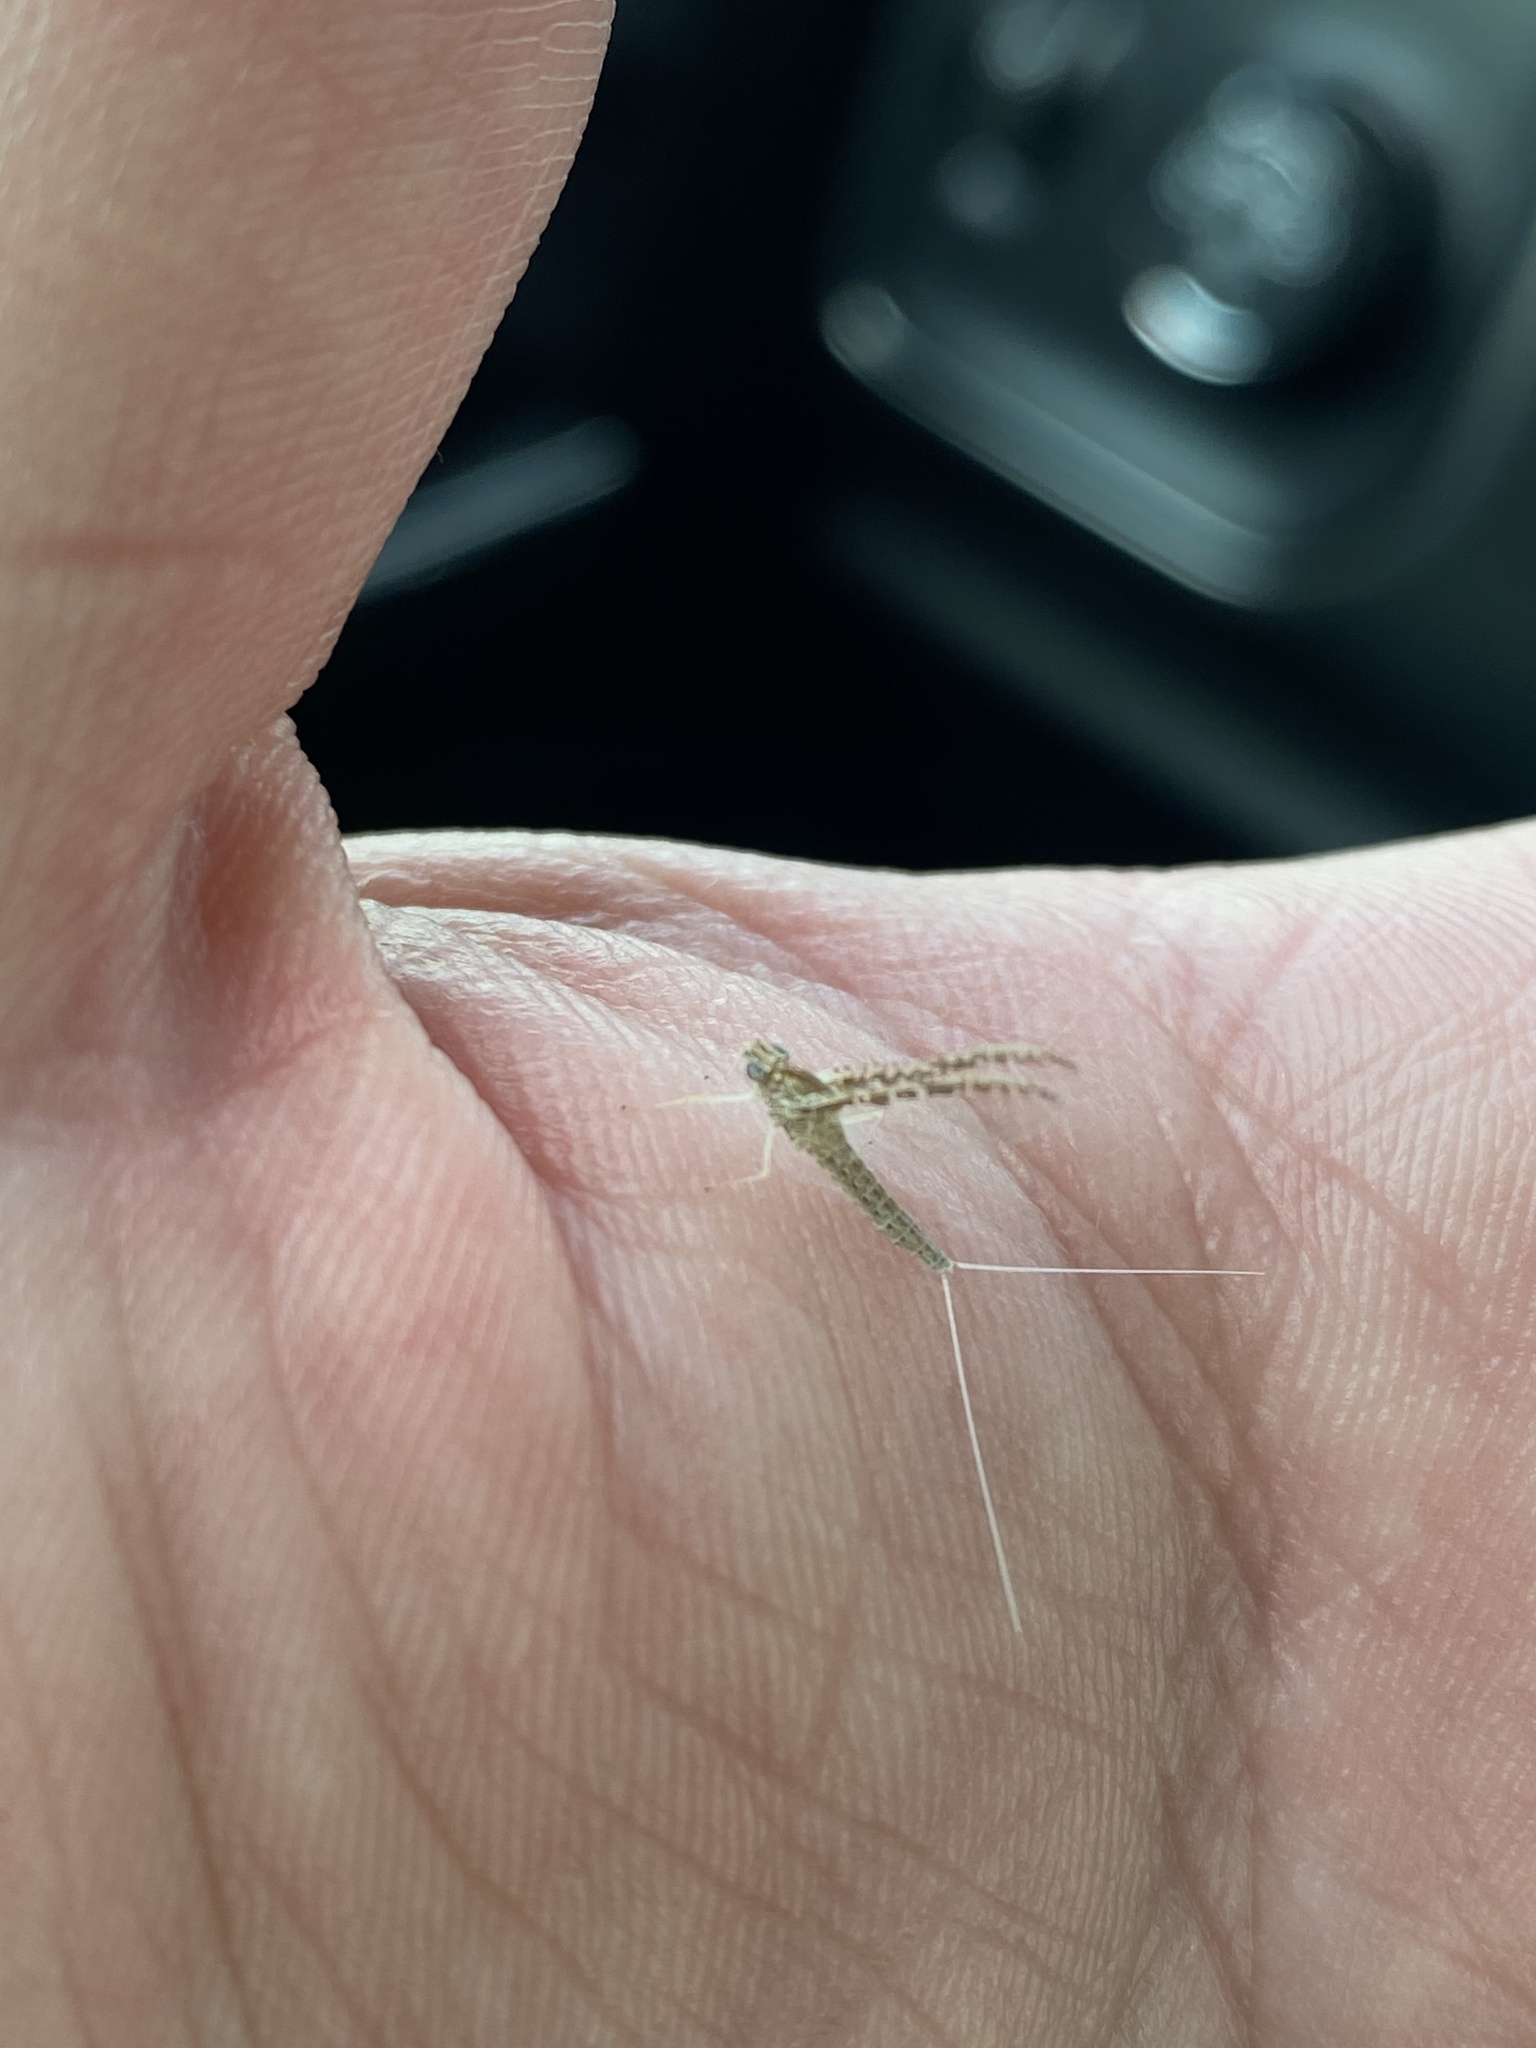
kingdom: Animalia
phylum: Arthropoda
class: Insecta
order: Ephemeroptera
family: Baetidae
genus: Callibaetis
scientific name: Callibaetis ferrugineus
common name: Red speckled dun
